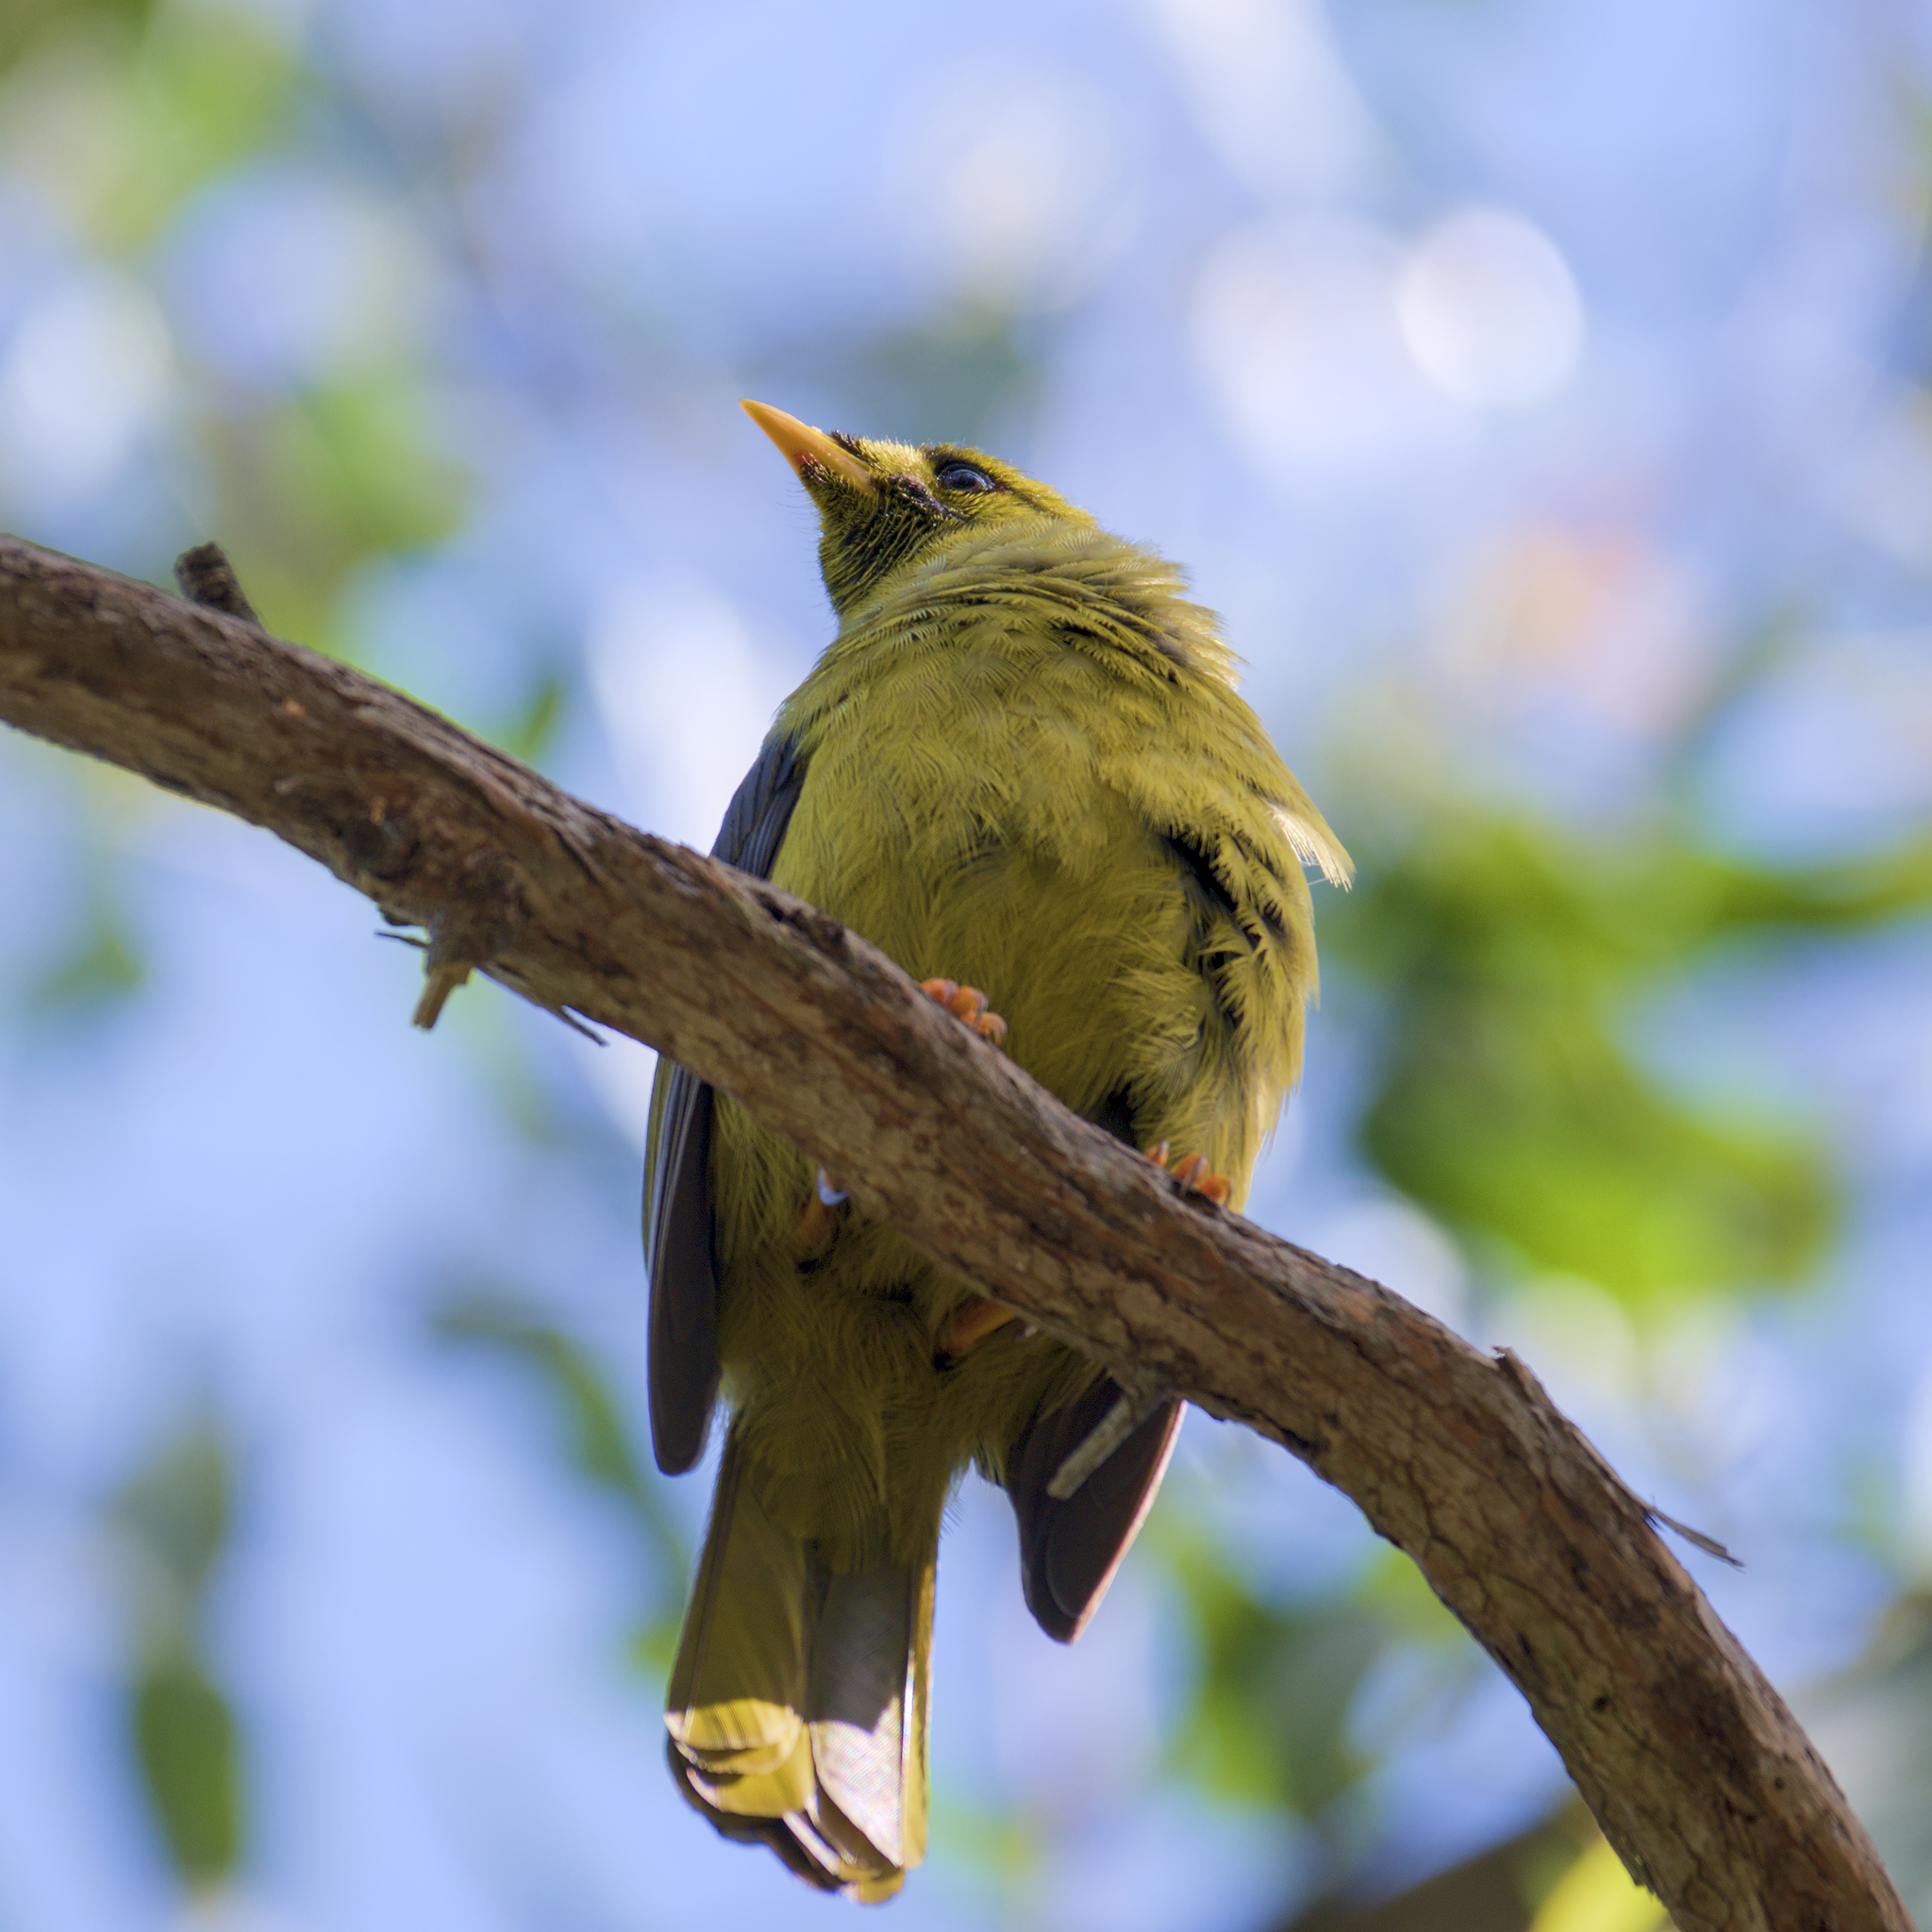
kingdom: Animalia
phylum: Chordata
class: Aves
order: Passeriformes
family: Meliphagidae
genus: Manorina
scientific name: Manorina melanophrys
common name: Bell miner
